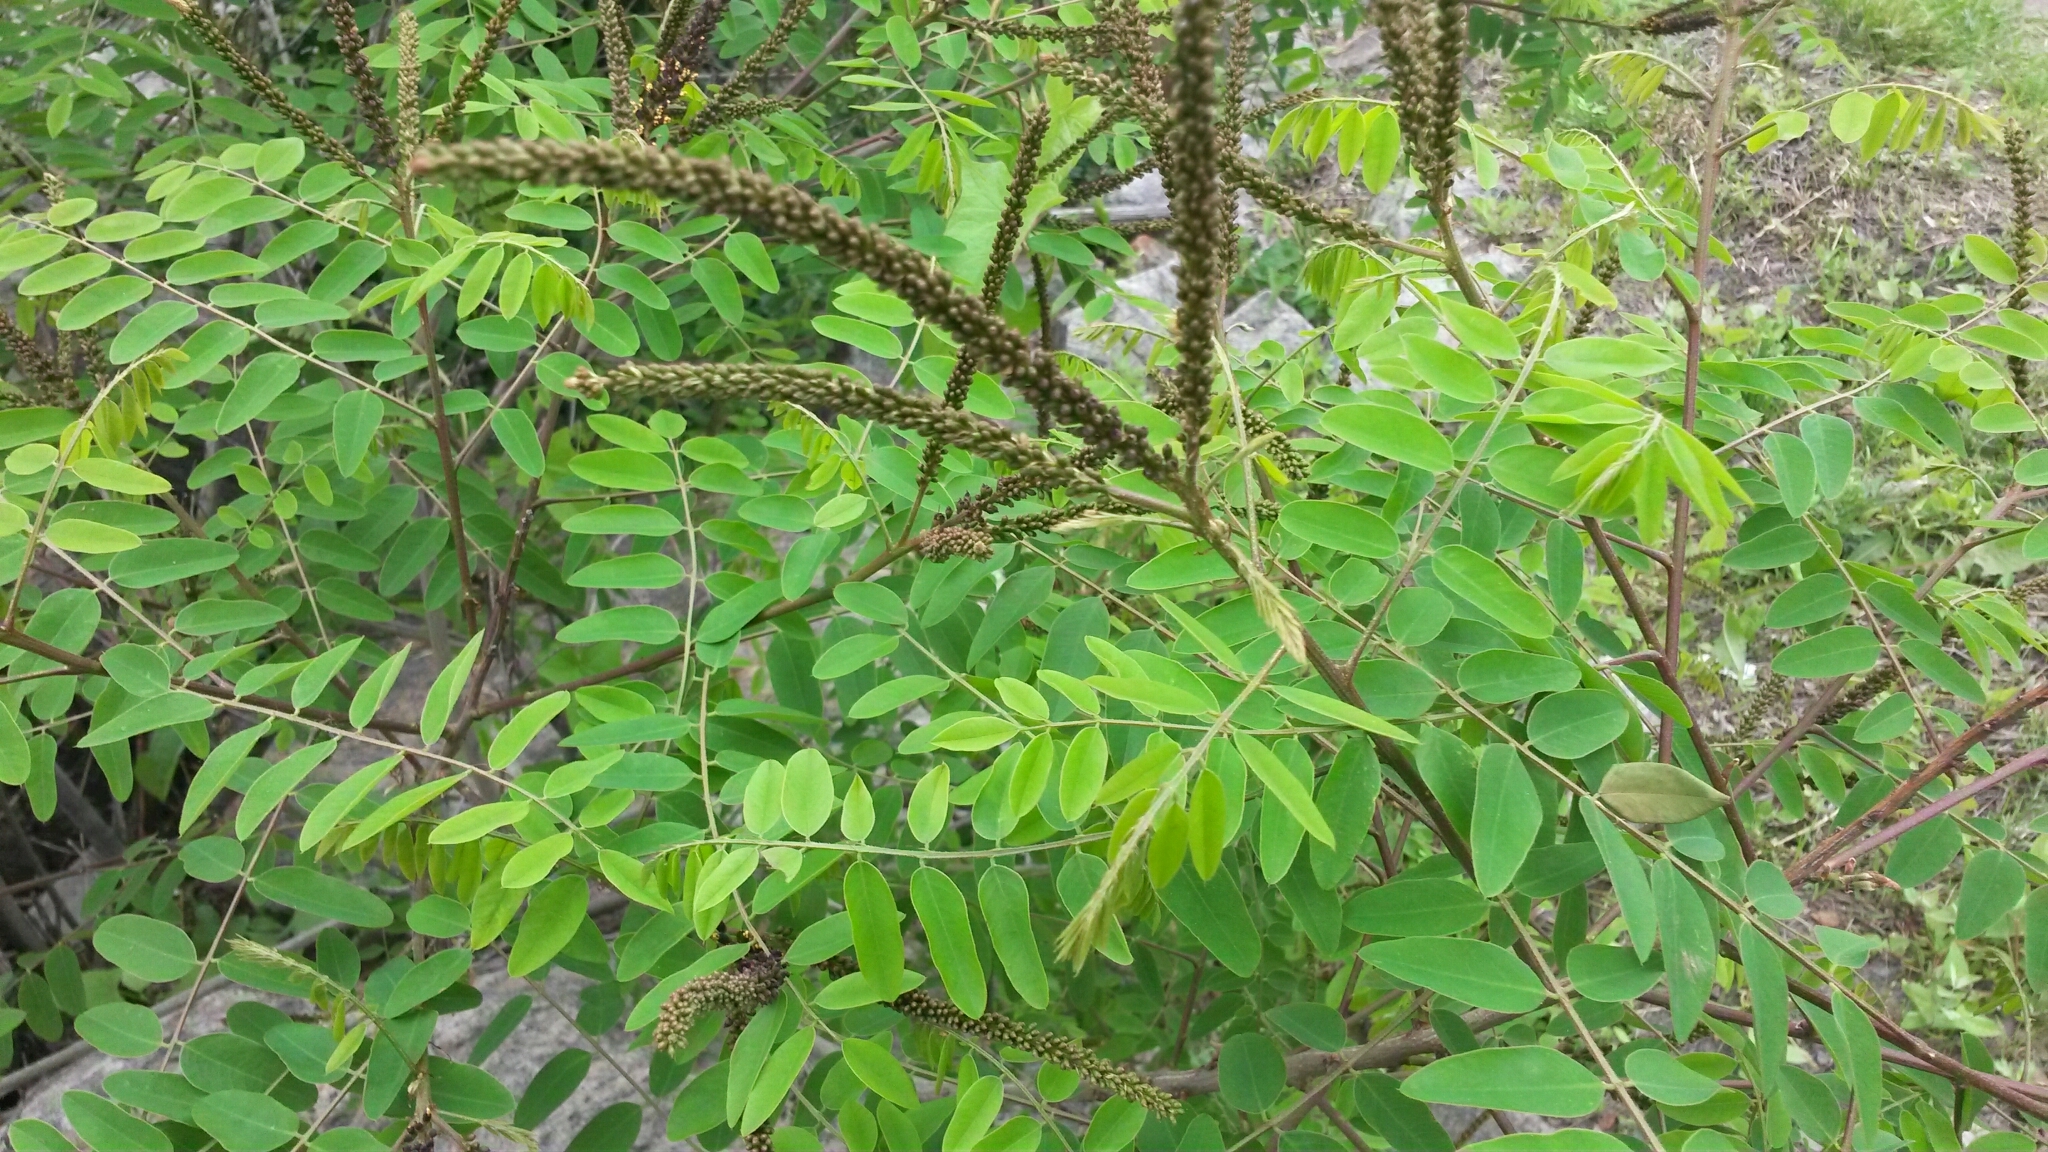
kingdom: Plantae
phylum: Tracheophyta
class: Magnoliopsida
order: Fabales
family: Fabaceae
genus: Amorpha
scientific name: Amorpha fruticosa
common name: False indigo
